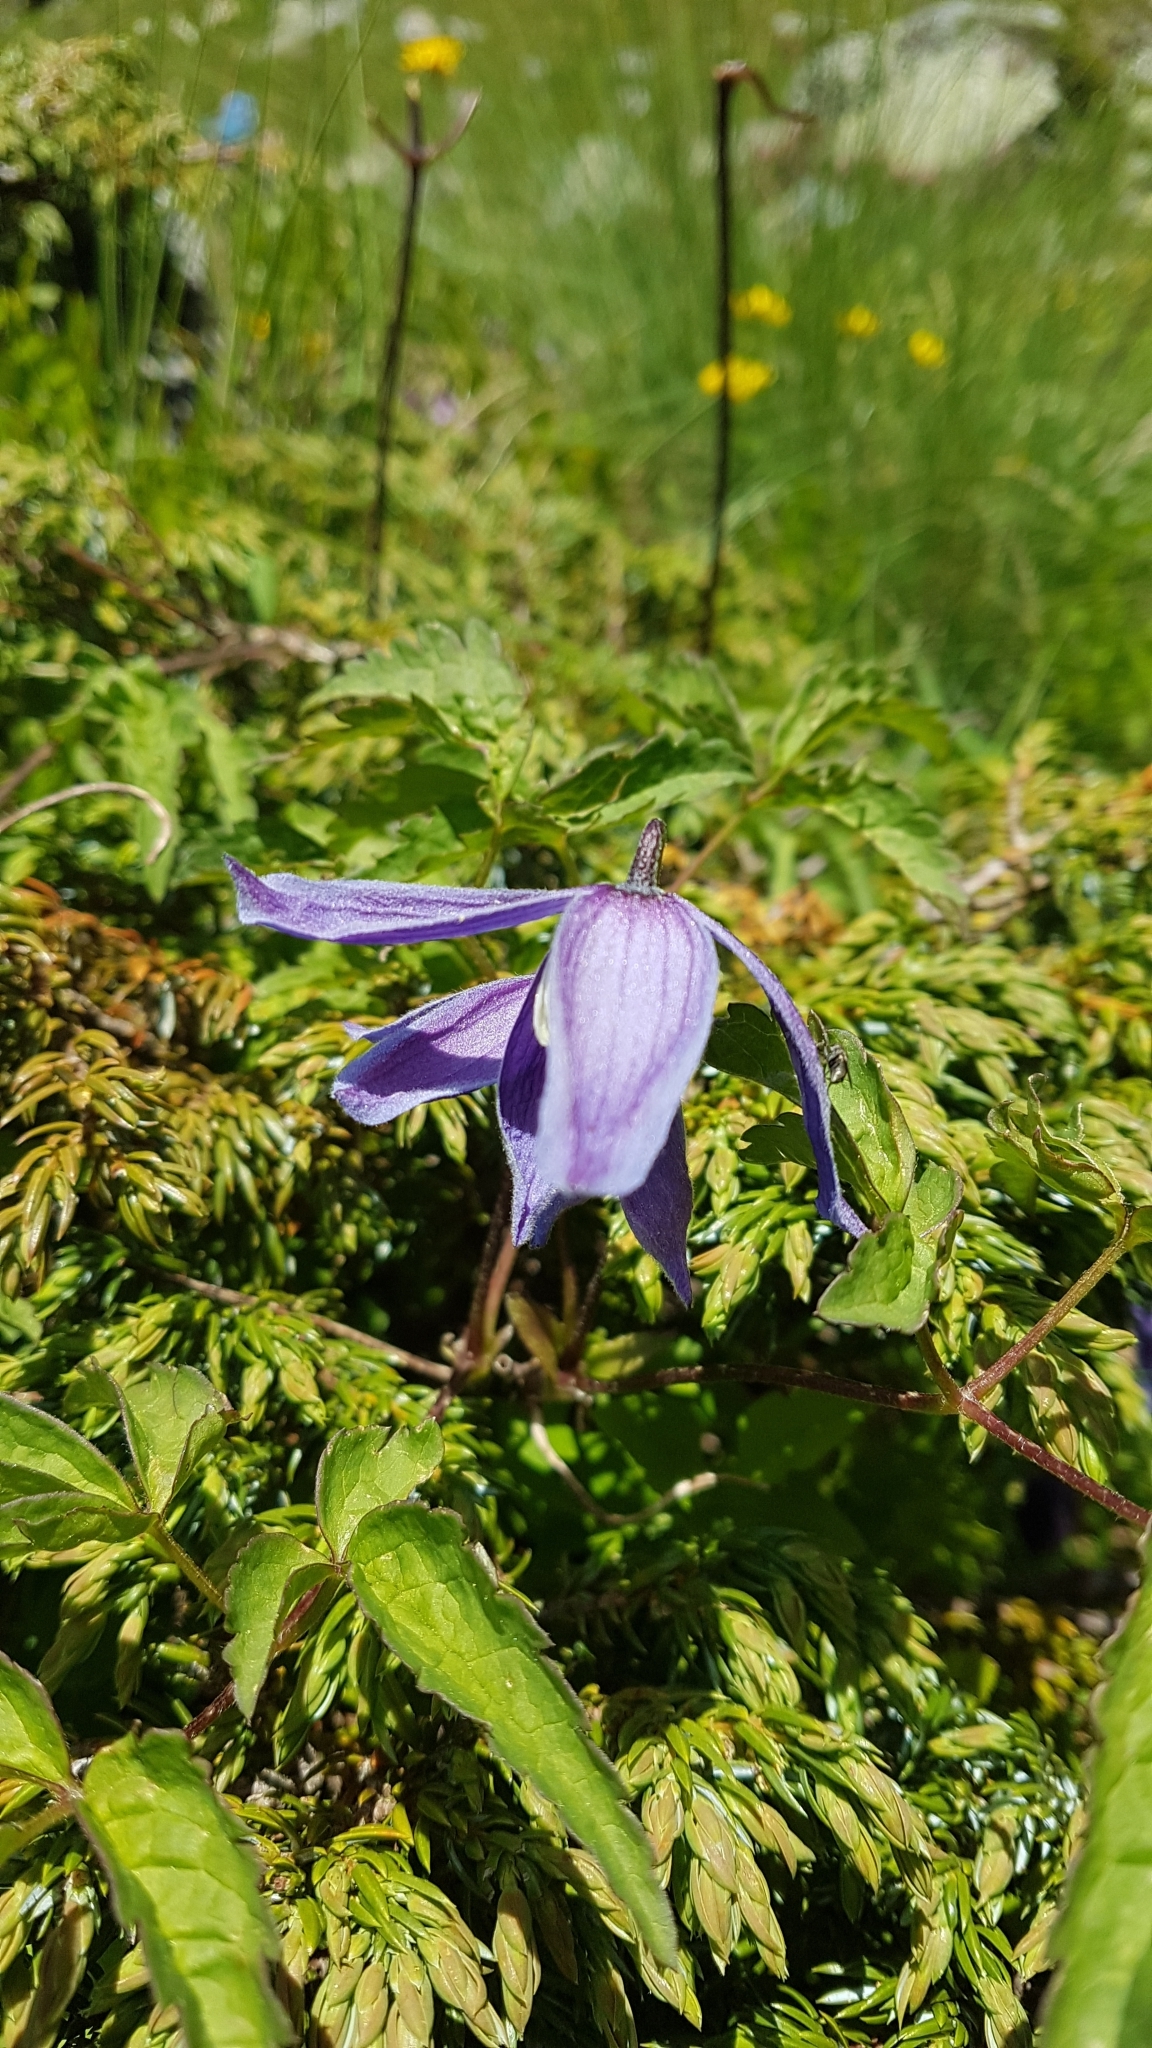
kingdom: Plantae
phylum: Tracheophyta
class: Magnoliopsida
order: Ranunculales
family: Ranunculaceae
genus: Clematis
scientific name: Clematis alpina
